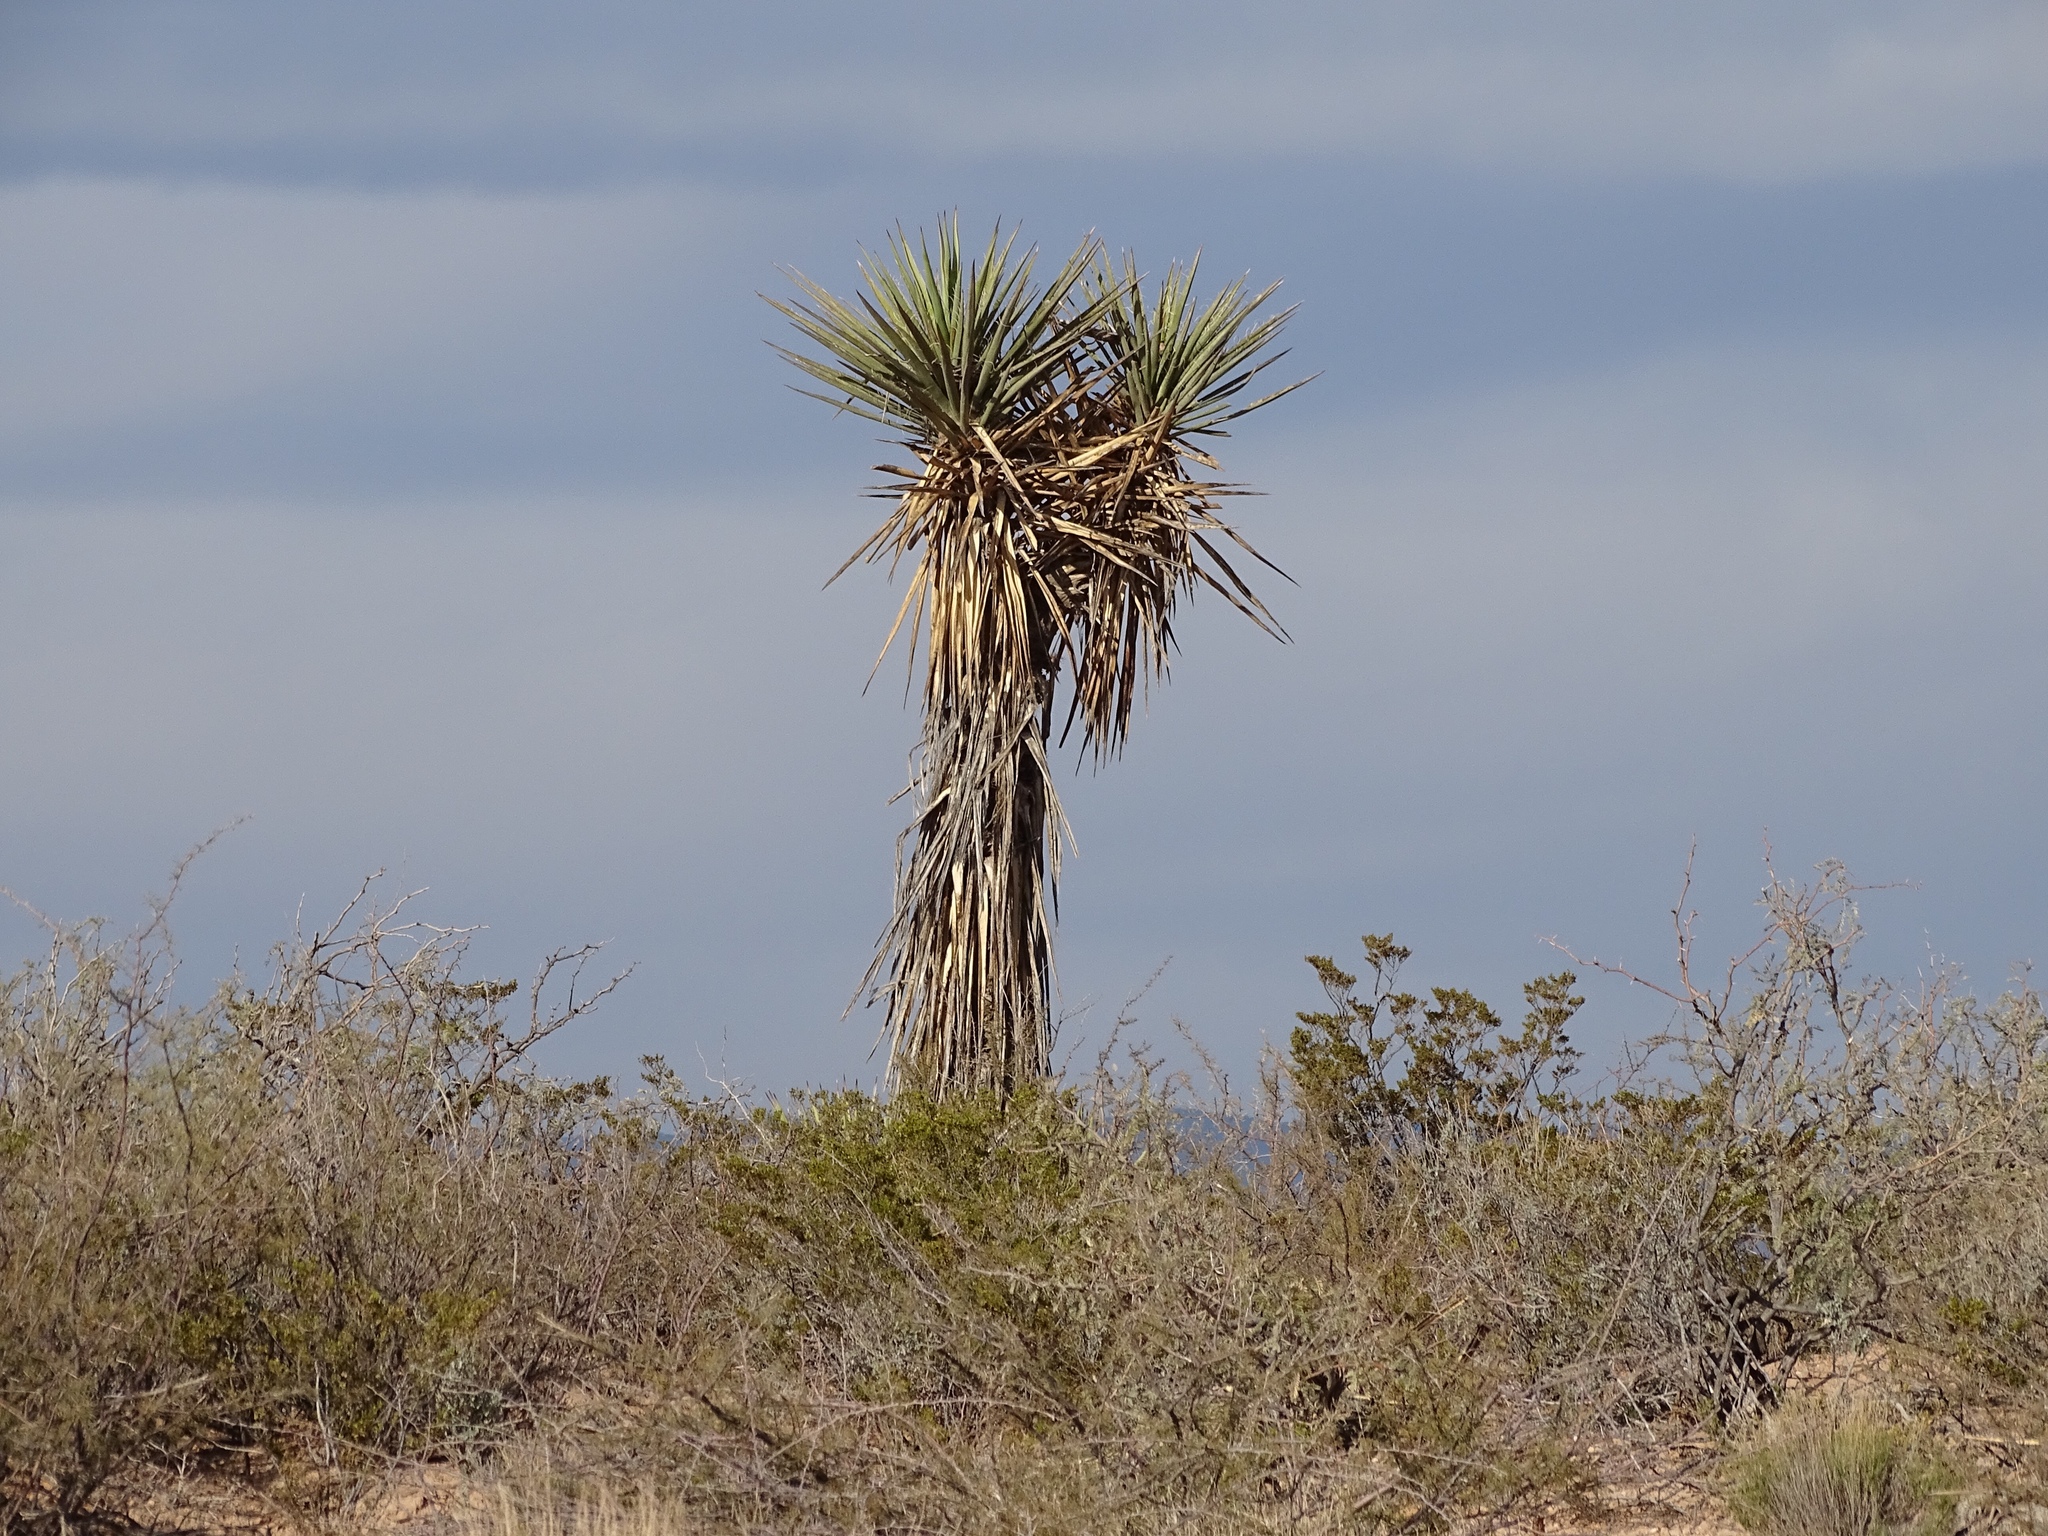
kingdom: Plantae
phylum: Tracheophyta
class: Liliopsida
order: Asparagales
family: Asparagaceae
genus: Yucca
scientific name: Yucca treculiana
